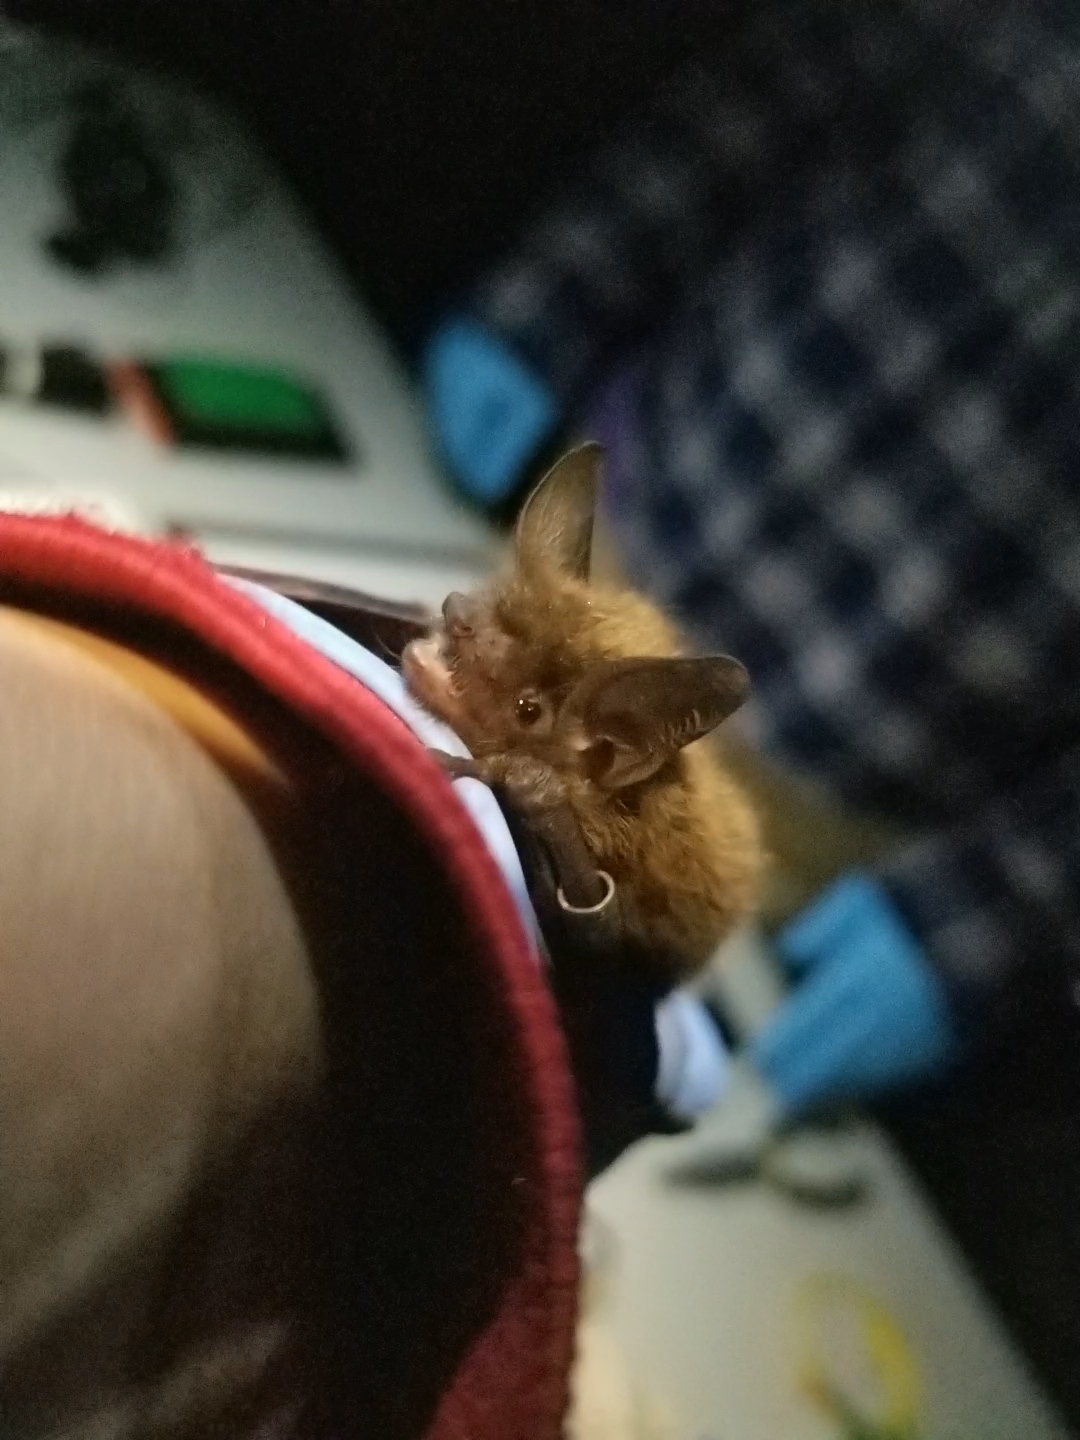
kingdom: Animalia
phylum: Chordata
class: Mammalia
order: Chiroptera
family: Vespertilionidae
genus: Myotis
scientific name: Myotis lucifugus
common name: Little brown bat
